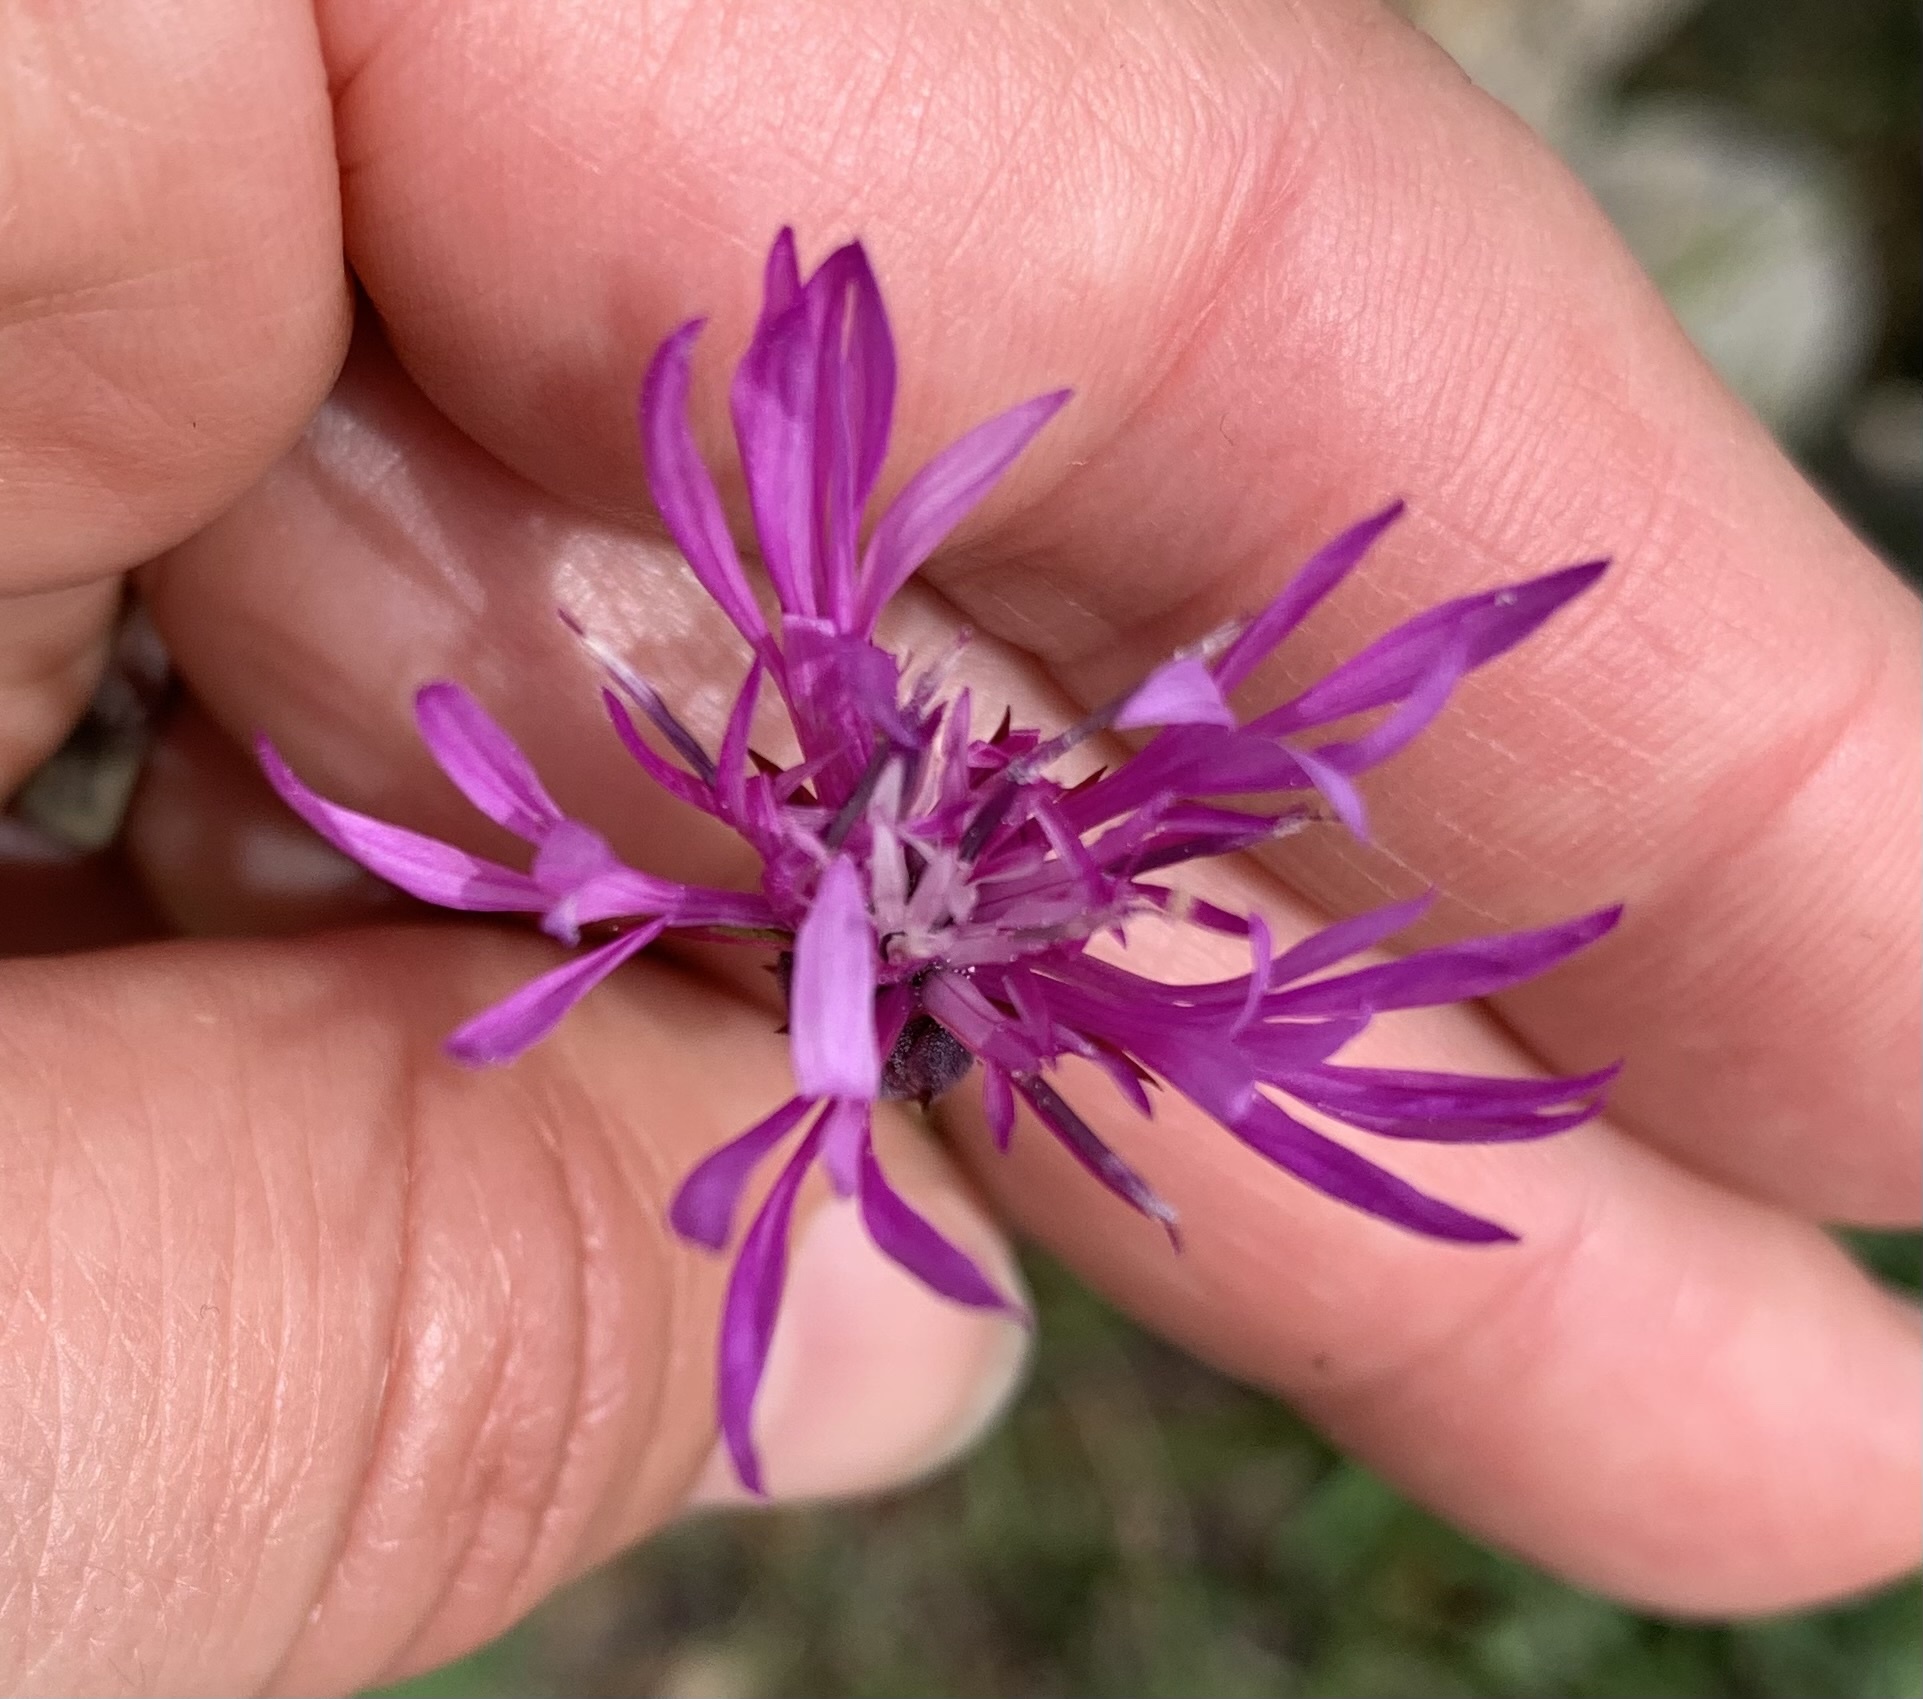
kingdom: Plantae
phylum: Tracheophyta
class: Magnoliopsida
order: Asterales
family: Asteraceae
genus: Crupina
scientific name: Crupina crupinastrum
